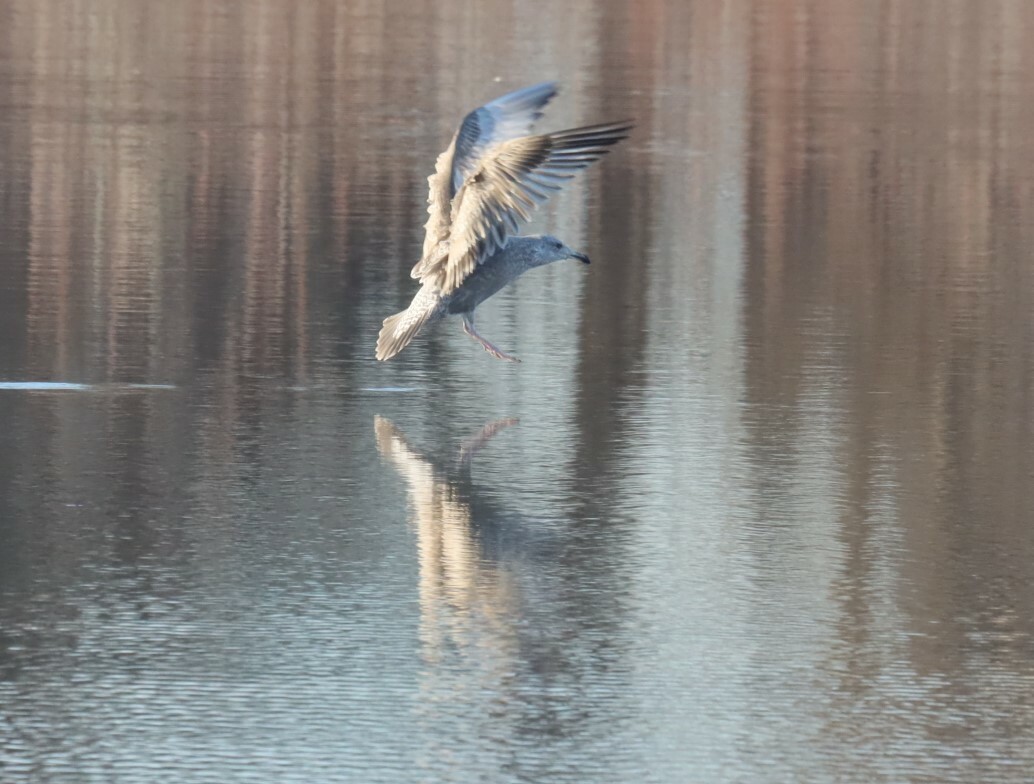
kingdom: Animalia
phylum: Chordata
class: Aves
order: Charadriiformes
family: Laridae
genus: Larus
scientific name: Larus argentatus
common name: Herring gull
